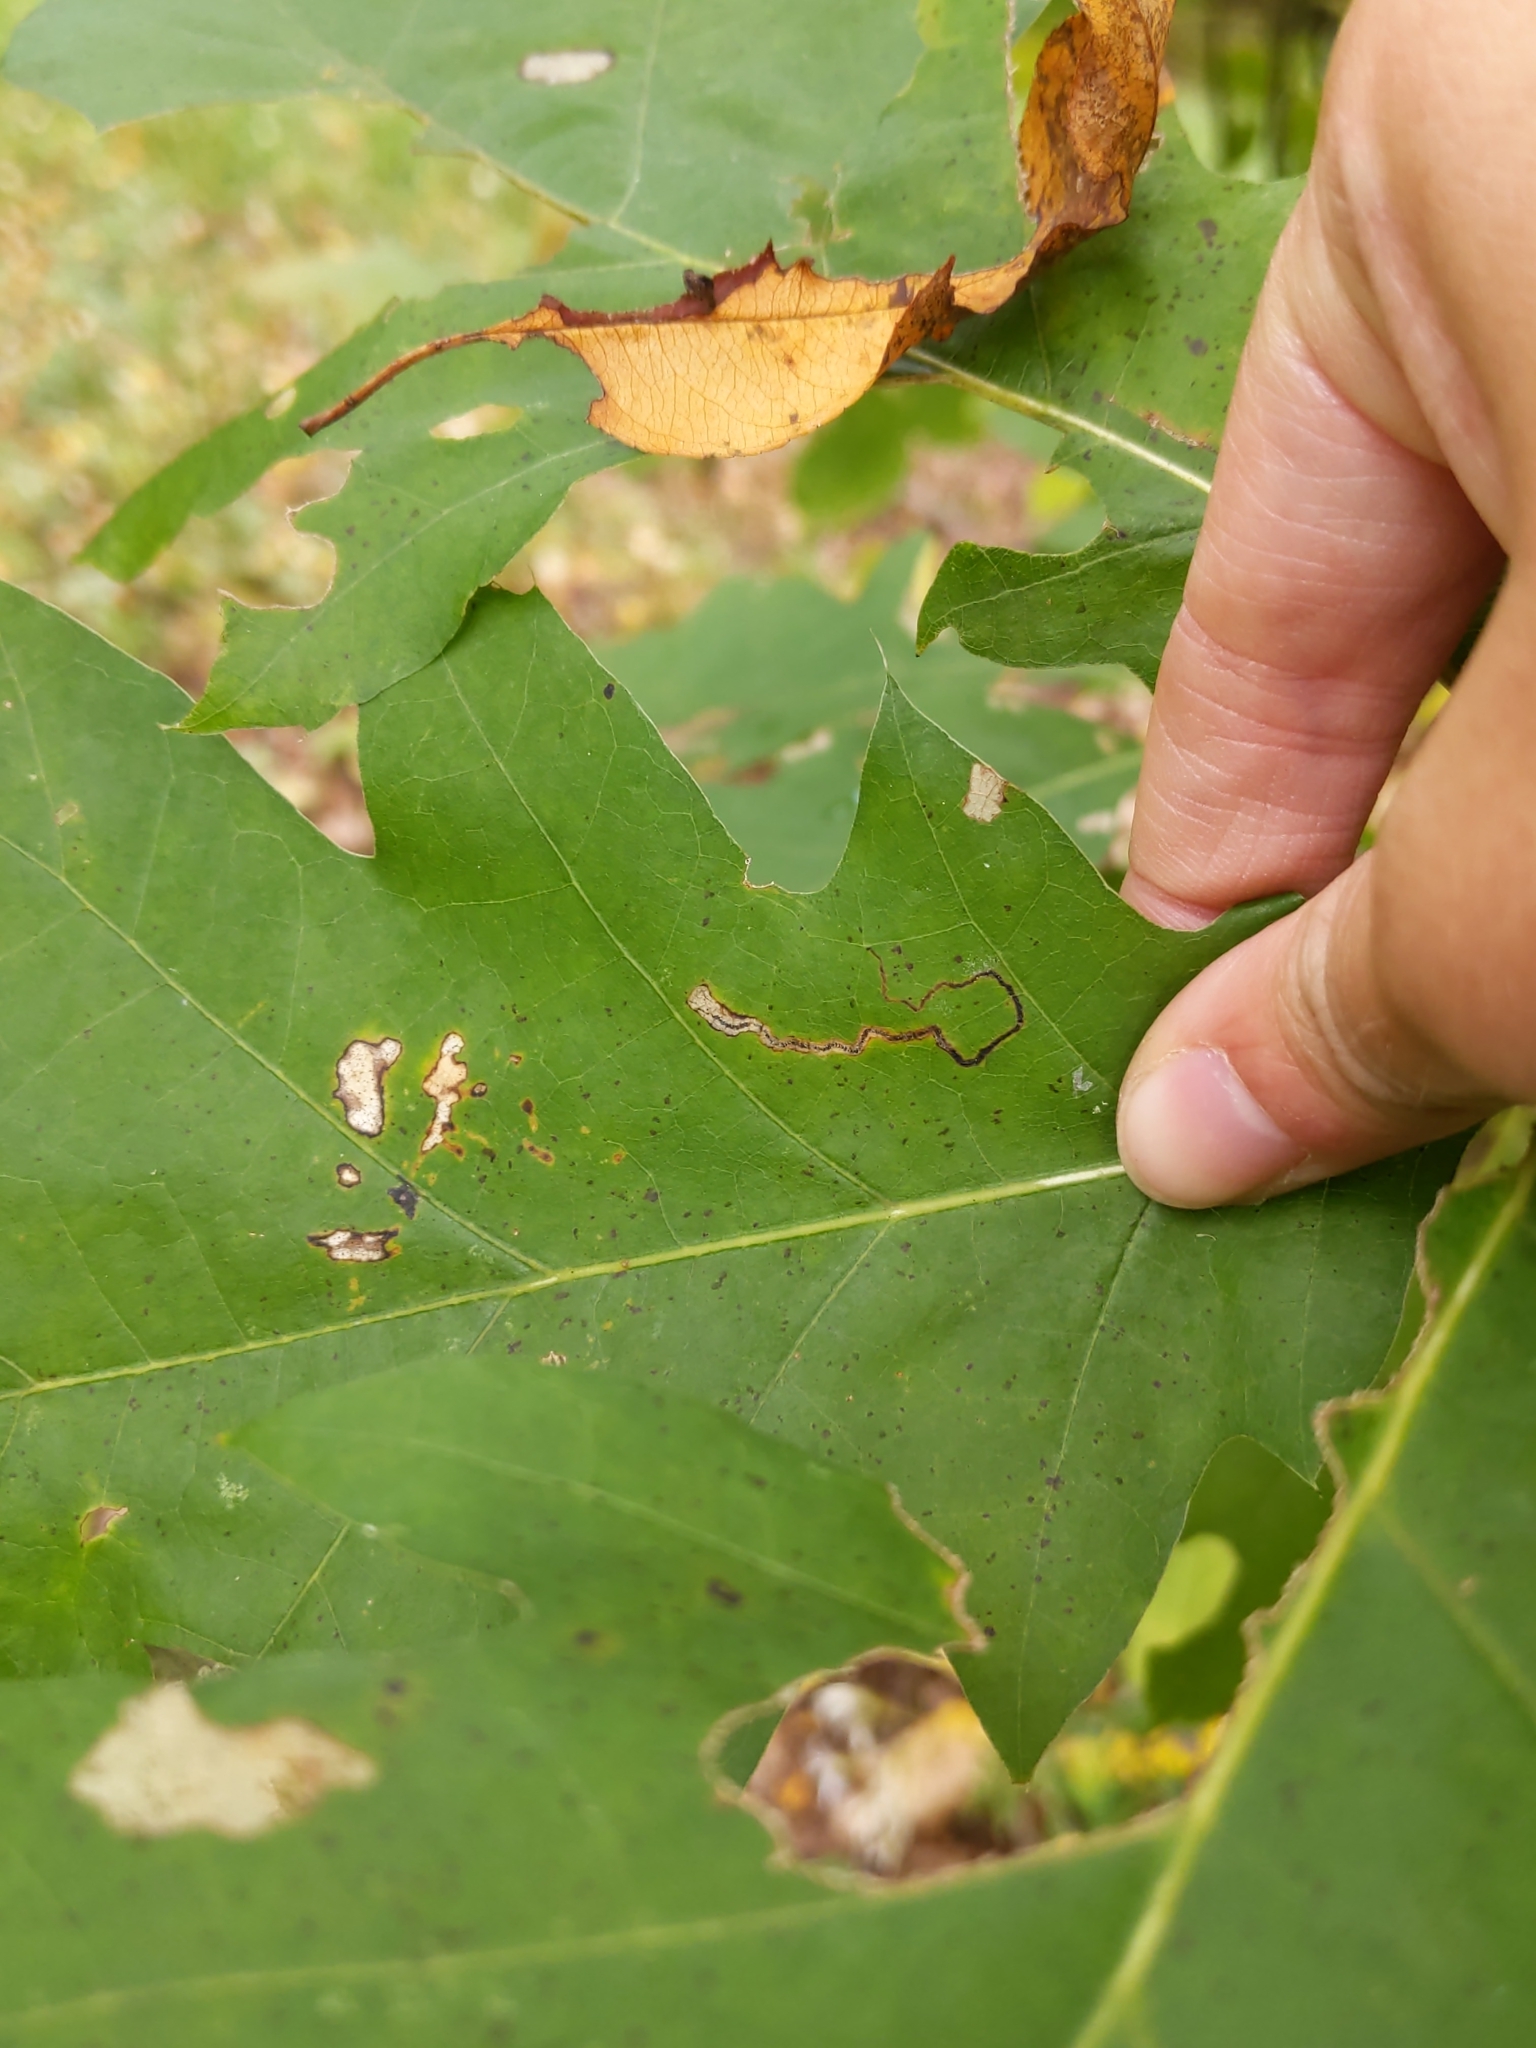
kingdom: Animalia
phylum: Arthropoda
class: Insecta
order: Lepidoptera
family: Nepticulidae
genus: Stigmella
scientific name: Stigmella
